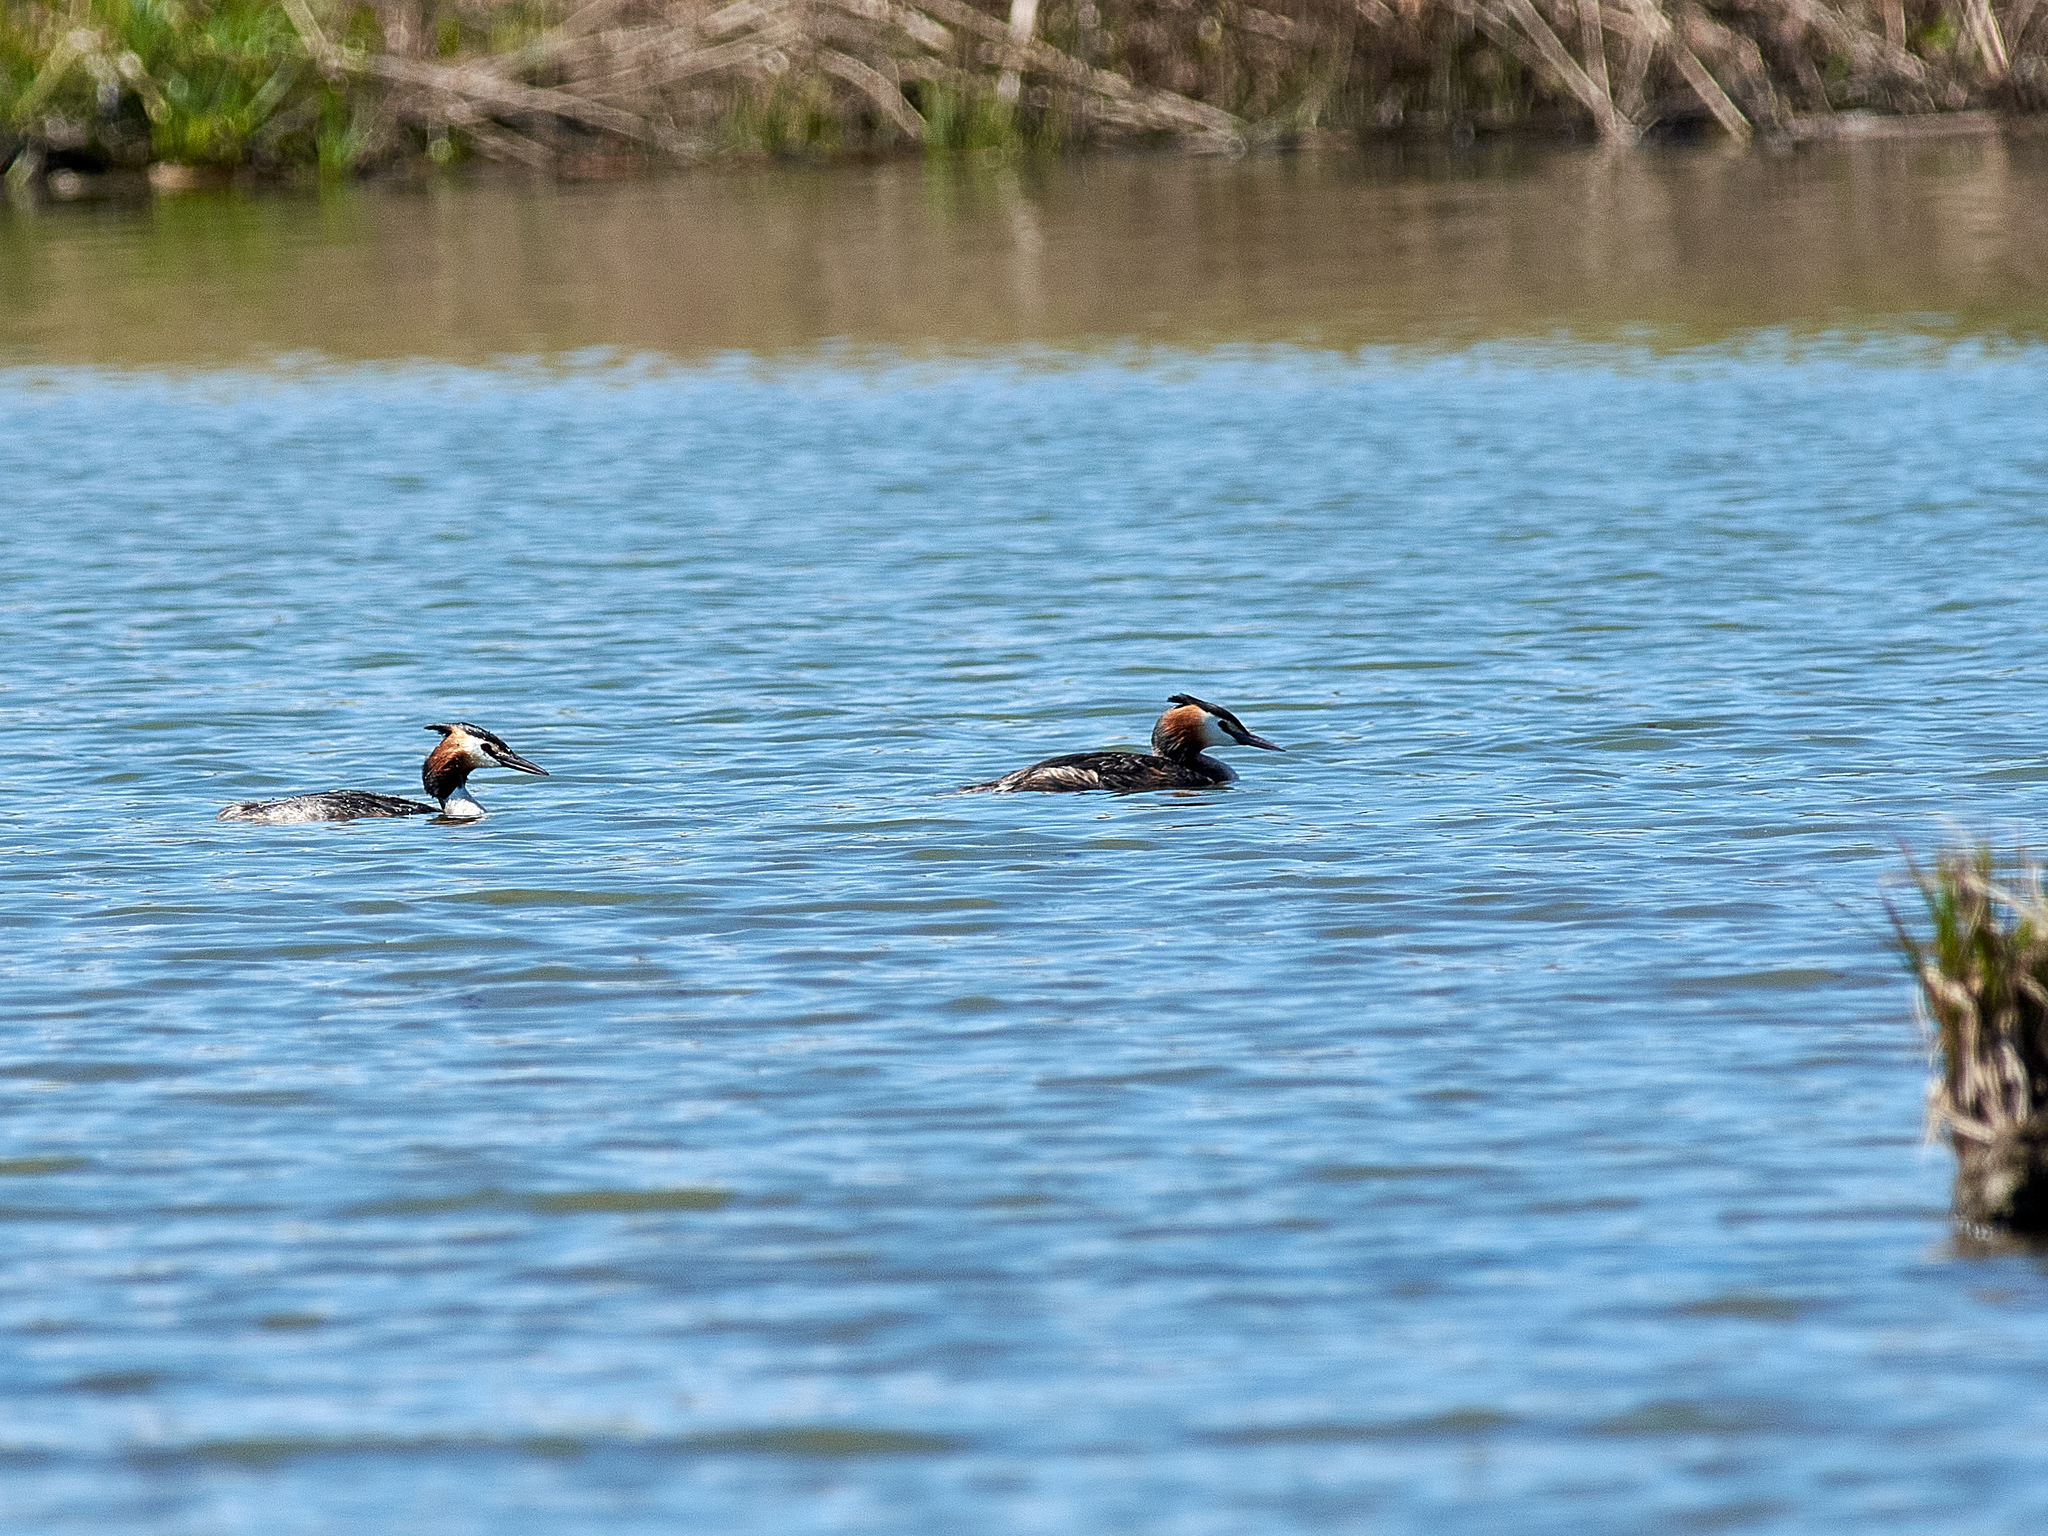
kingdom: Animalia
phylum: Chordata
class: Aves
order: Podicipediformes
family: Podicipedidae
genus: Podiceps
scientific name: Podiceps cristatus
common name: Great crested grebe
